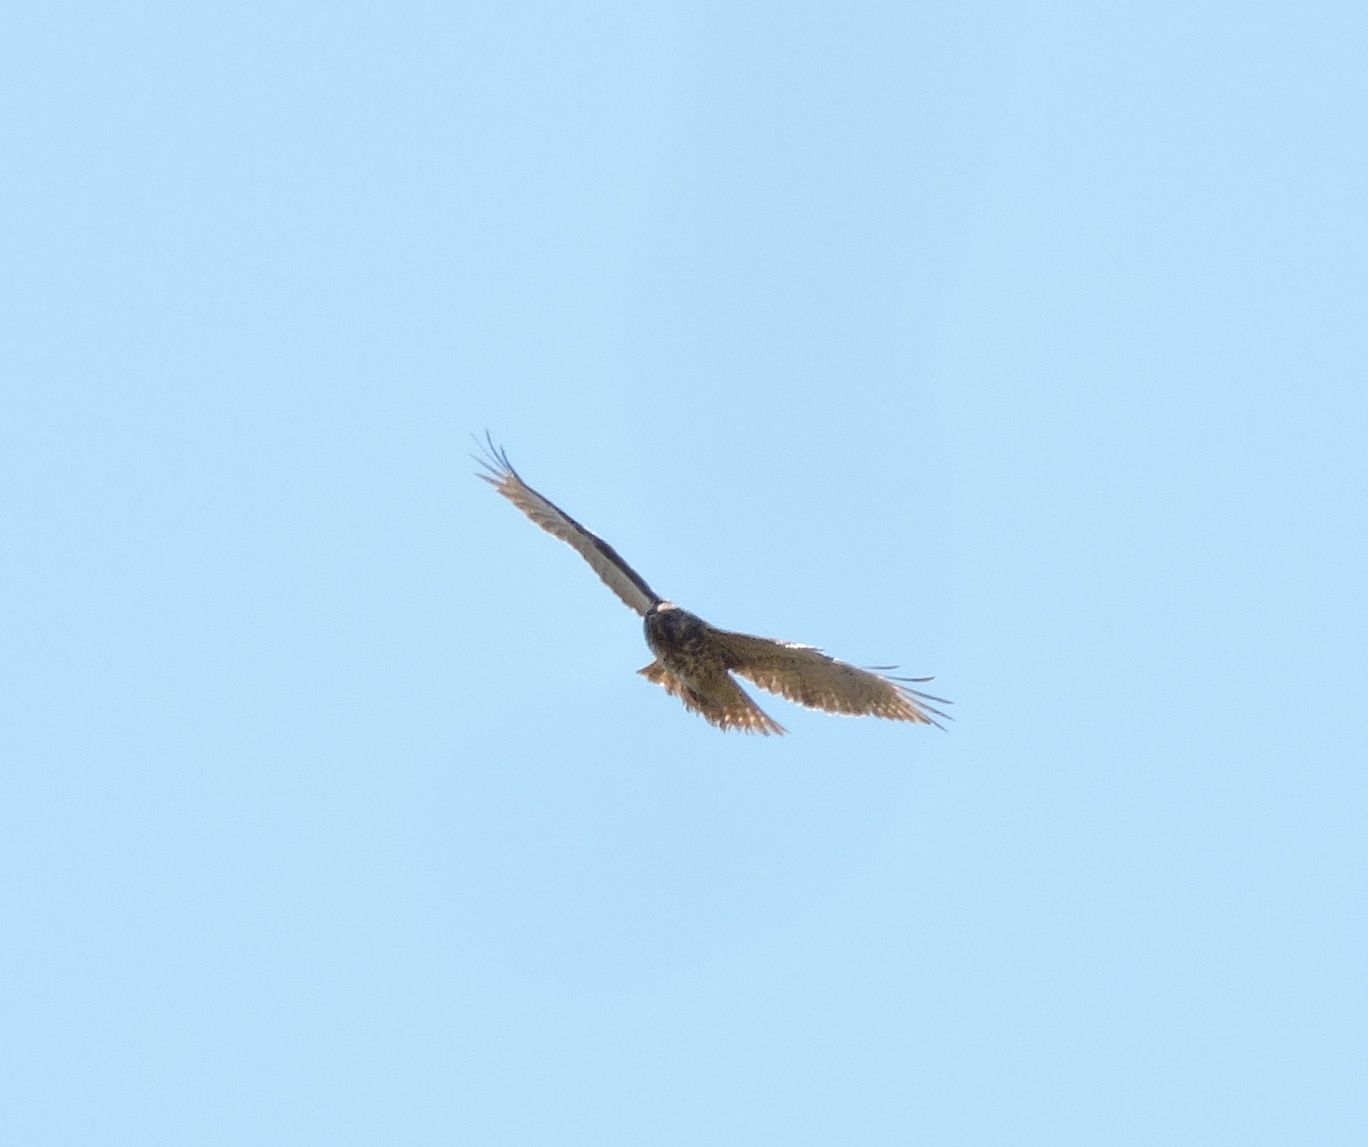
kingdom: Animalia
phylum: Chordata
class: Aves
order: Accipitriformes
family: Accipitridae
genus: Buteo
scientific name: Buteo lineatus
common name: Red-shouldered hawk
